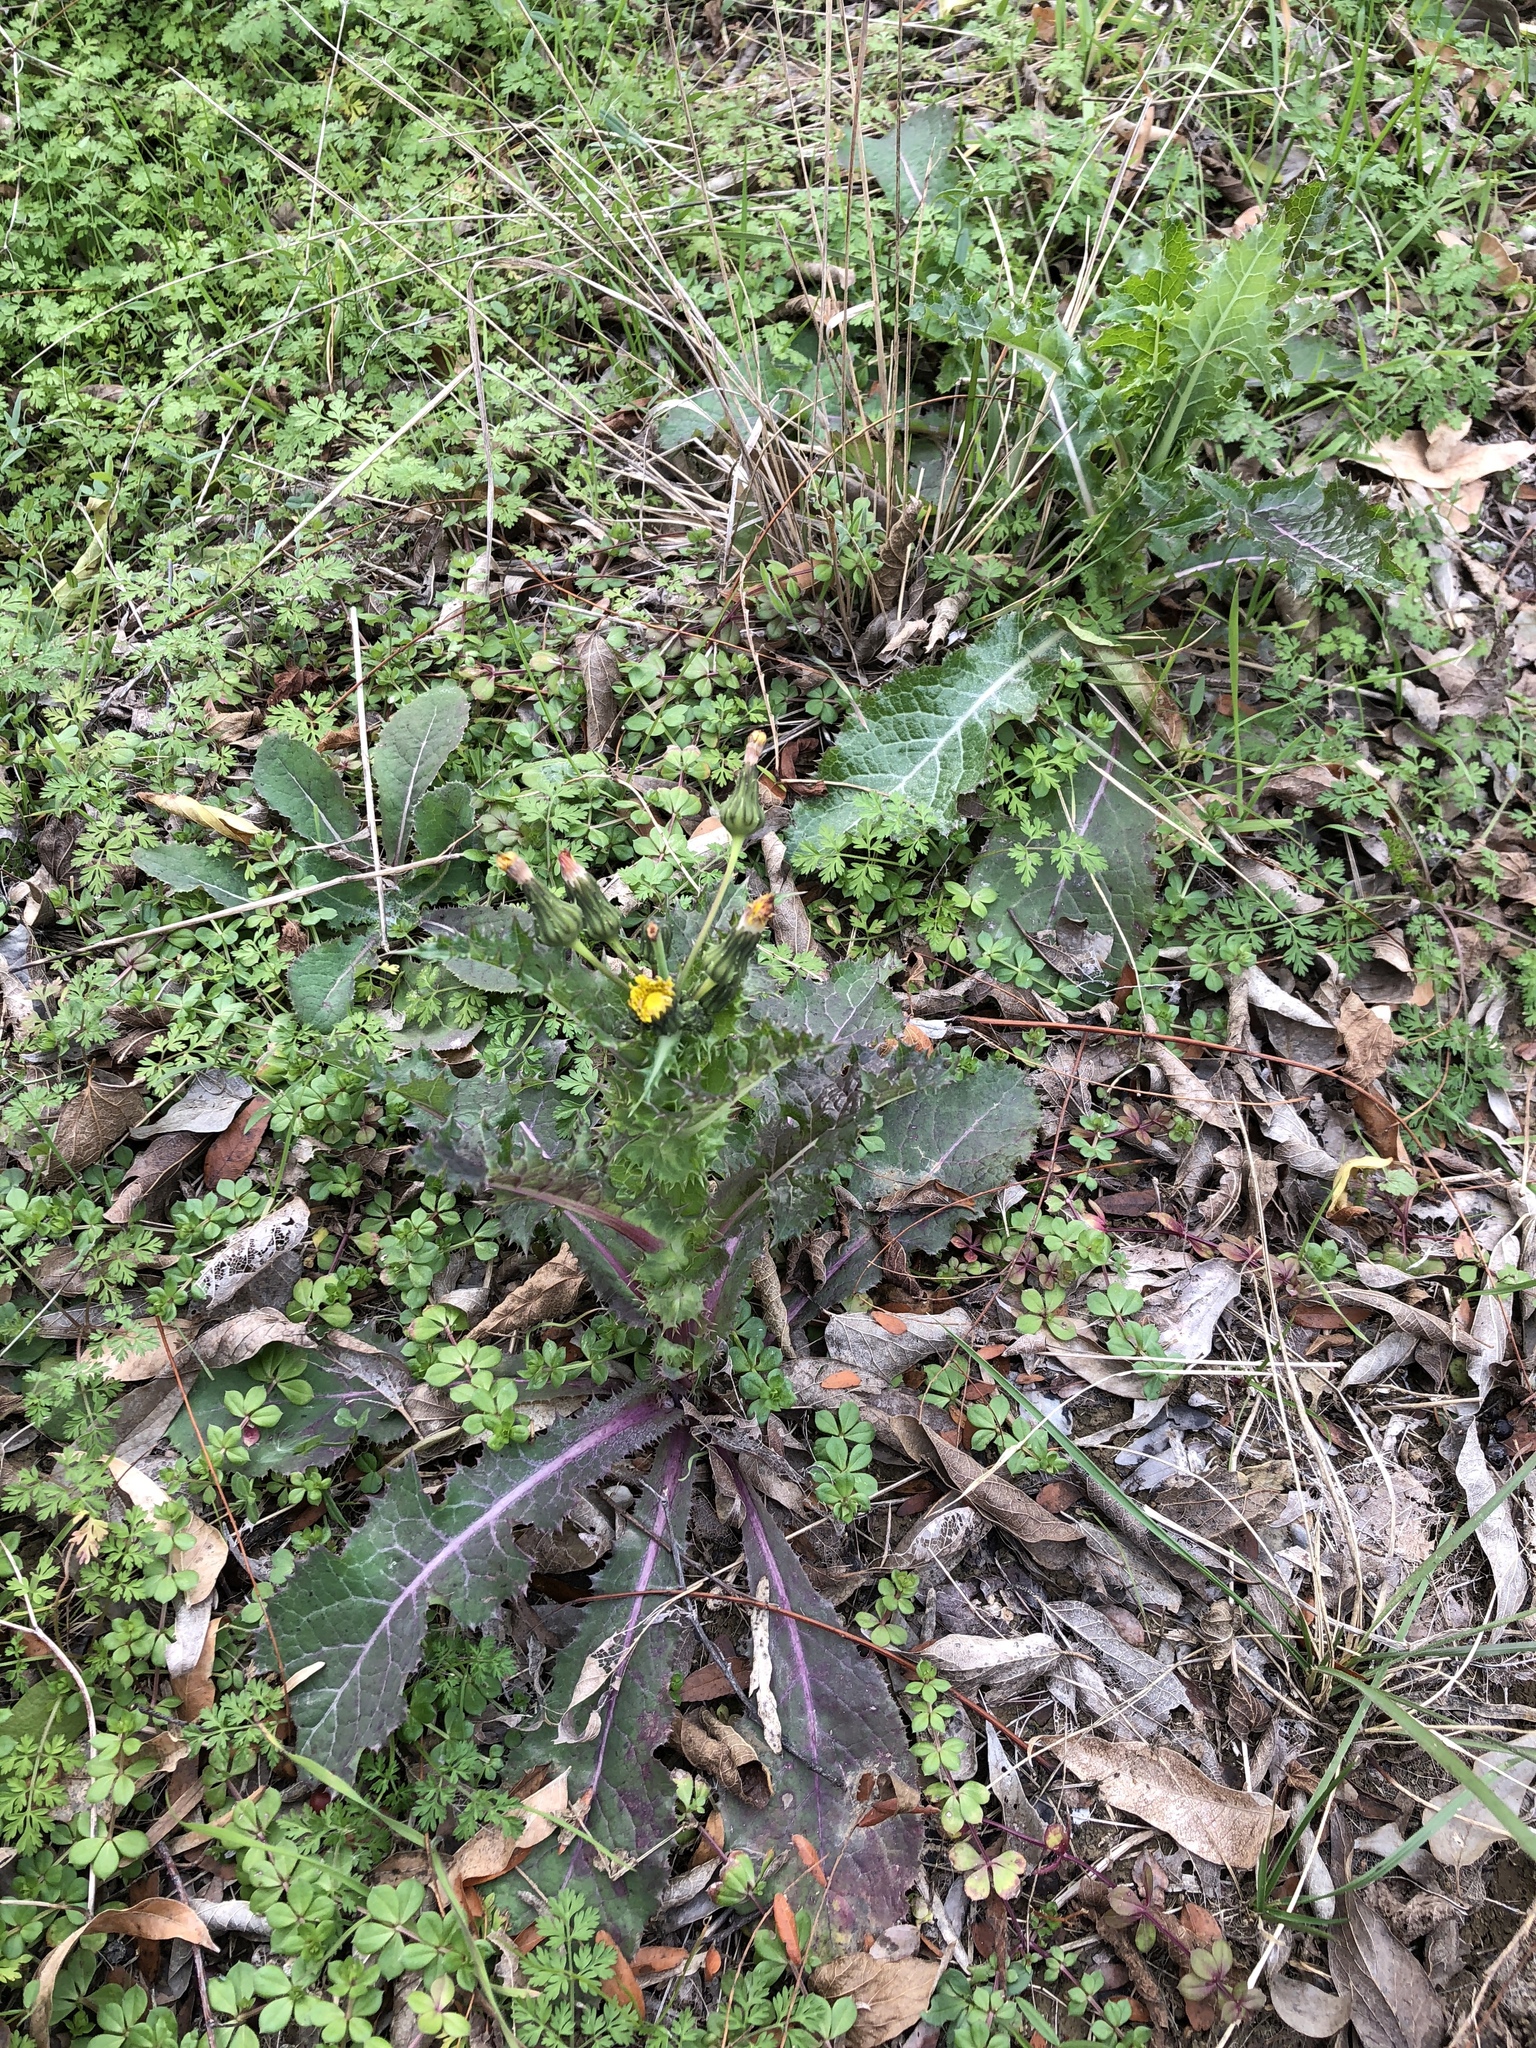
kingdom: Plantae
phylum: Tracheophyta
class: Magnoliopsida
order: Asterales
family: Asteraceae
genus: Sonchus
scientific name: Sonchus asper
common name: Prickly sow-thistle
